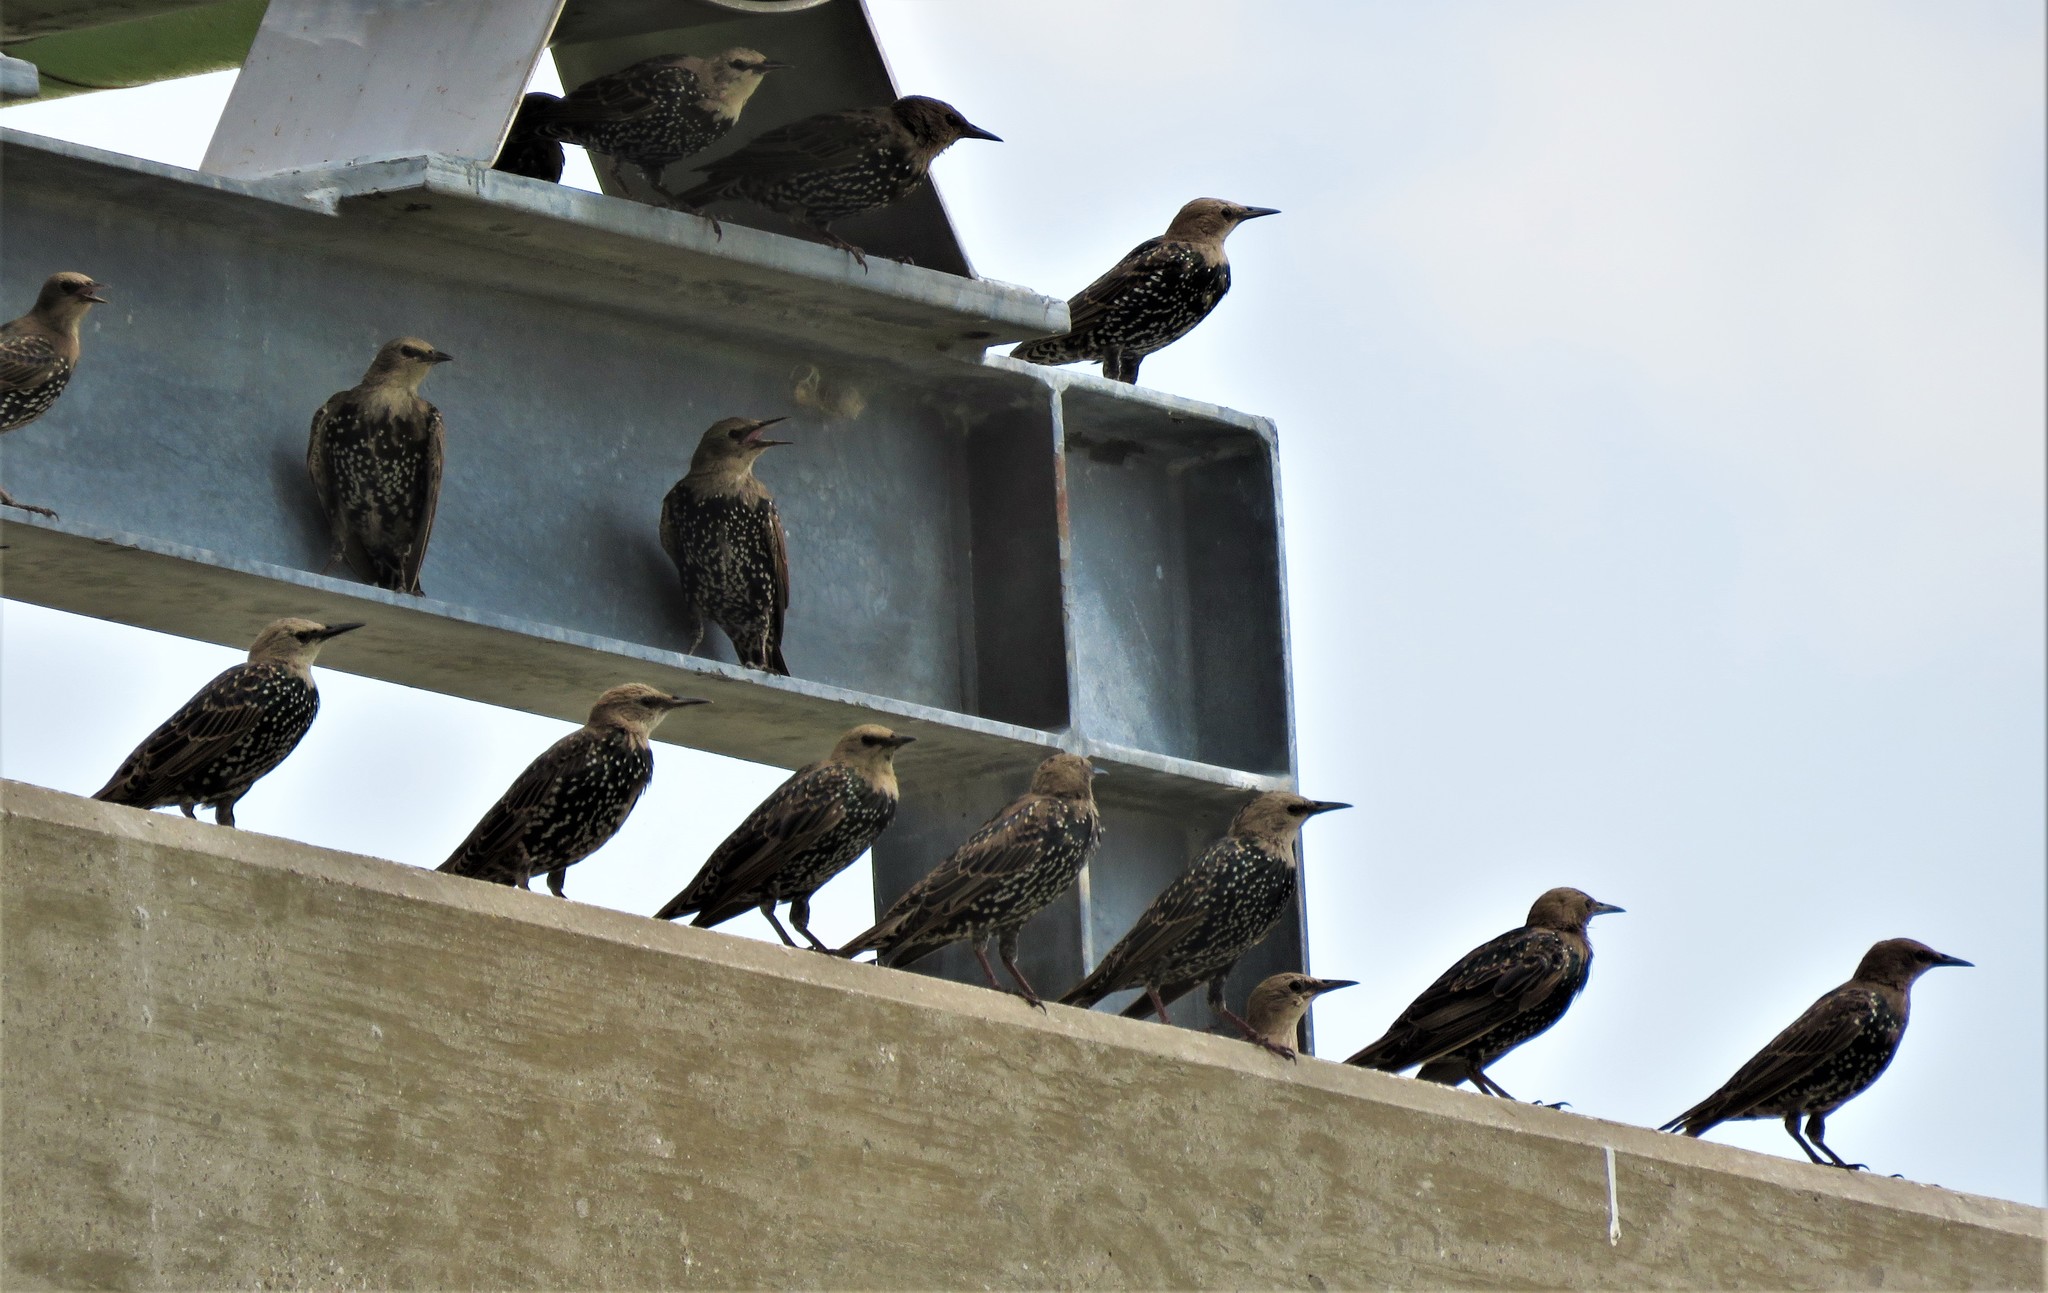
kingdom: Animalia
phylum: Chordata
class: Aves
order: Passeriformes
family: Sturnidae
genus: Sturnus
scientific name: Sturnus vulgaris
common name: Common starling
